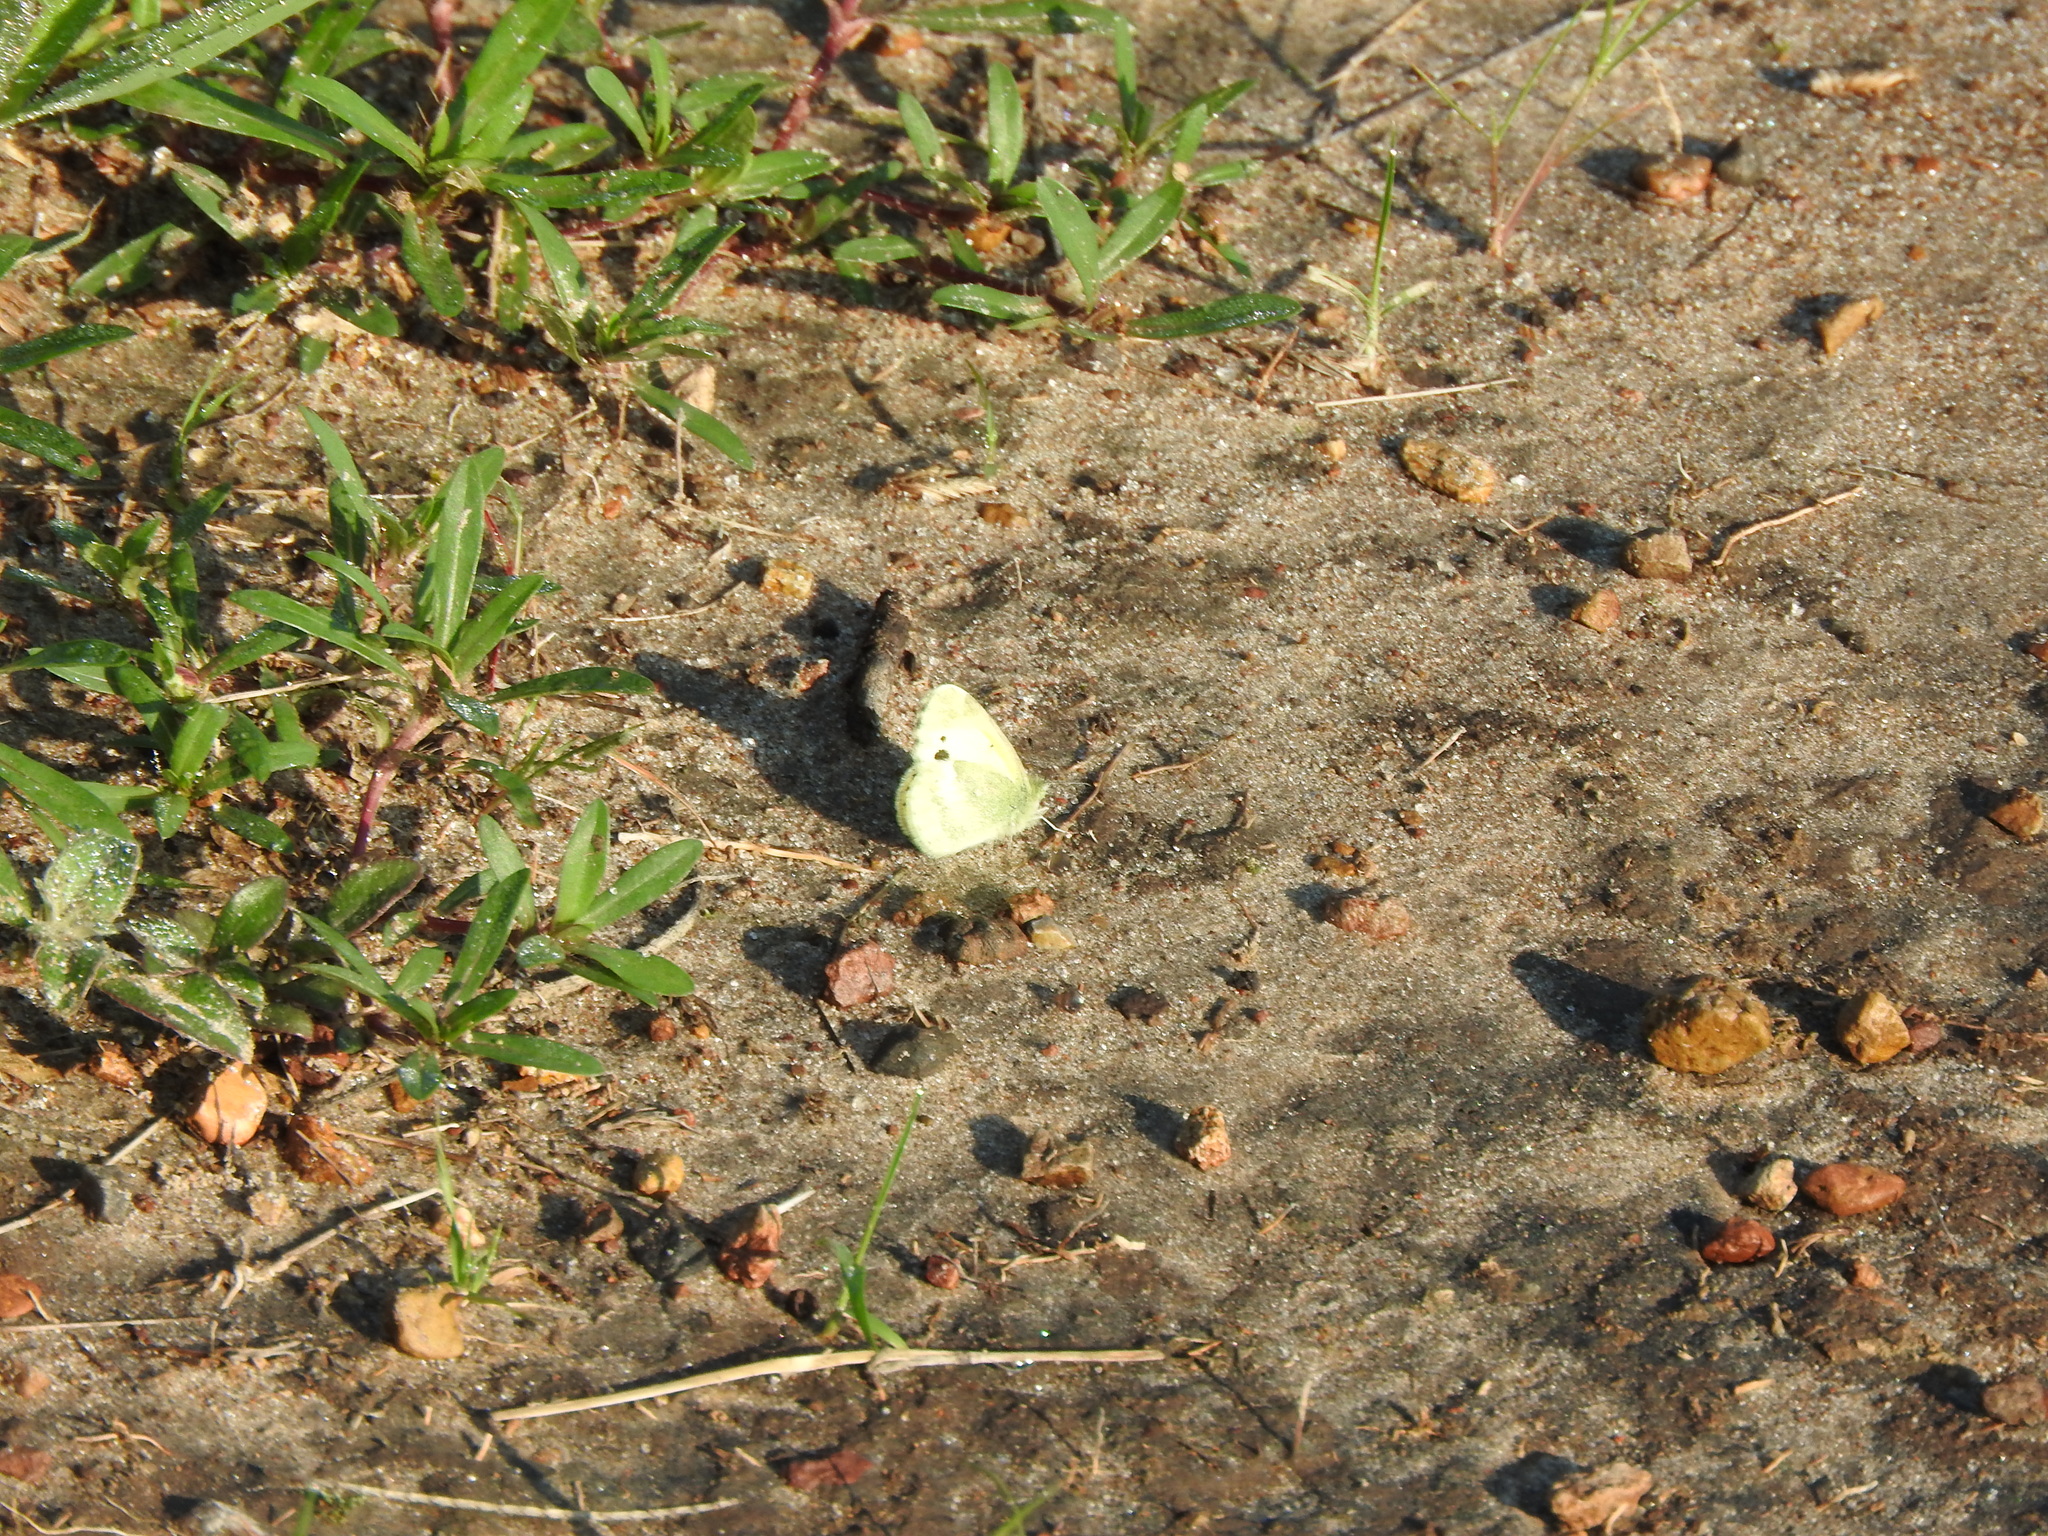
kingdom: Animalia
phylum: Arthropoda
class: Insecta
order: Lepidoptera
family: Pieridae
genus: Nathalis
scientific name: Nathalis iole
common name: Dainty sulphur
